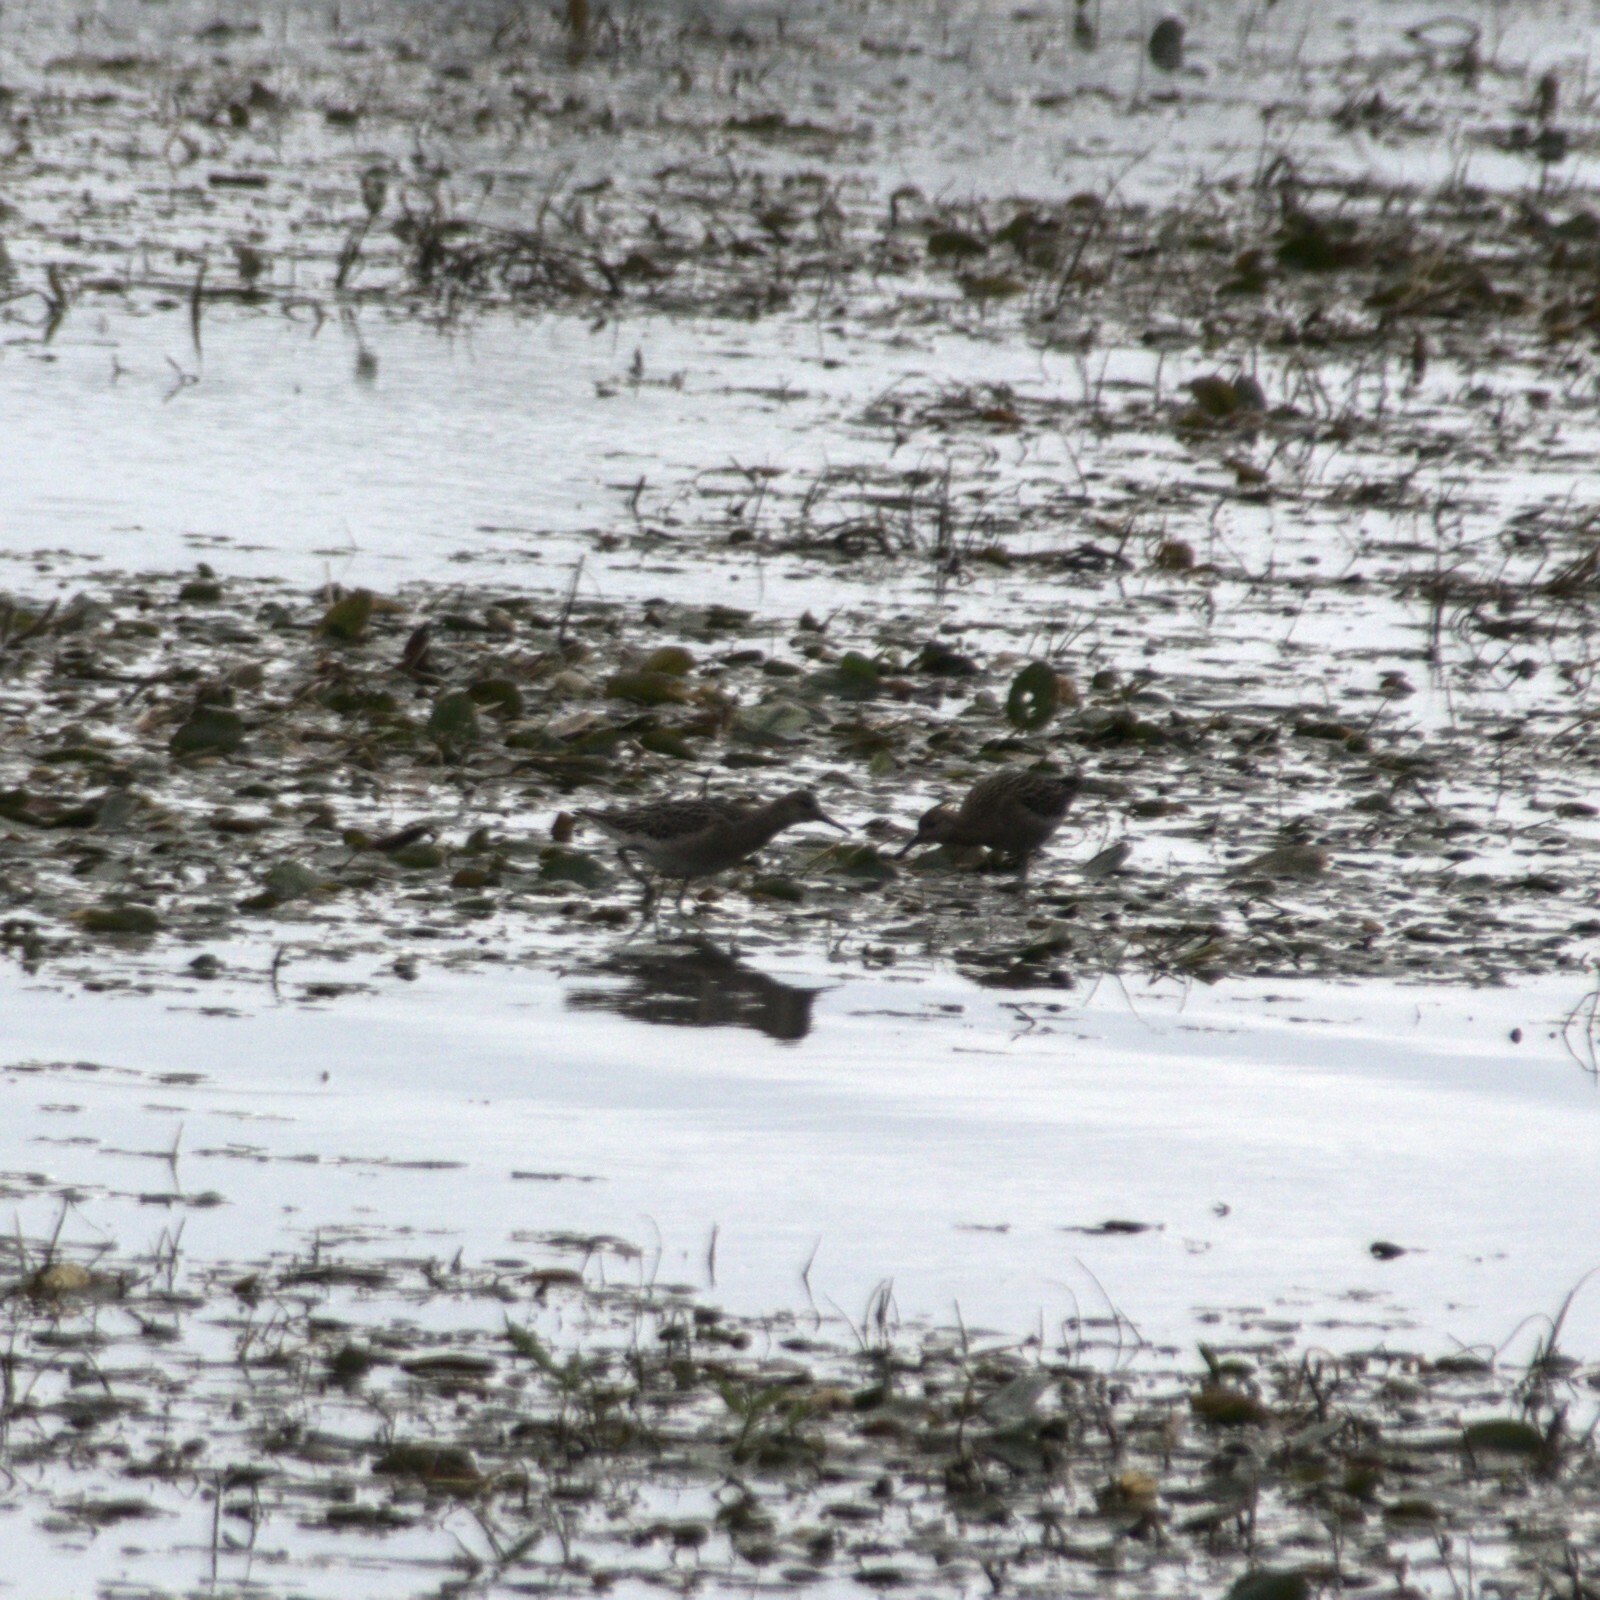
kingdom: Animalia
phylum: Chordata
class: Aves
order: Charadriiformes
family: Scolopacidae
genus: Calidris
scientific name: Calidris pugnax
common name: Ruff
